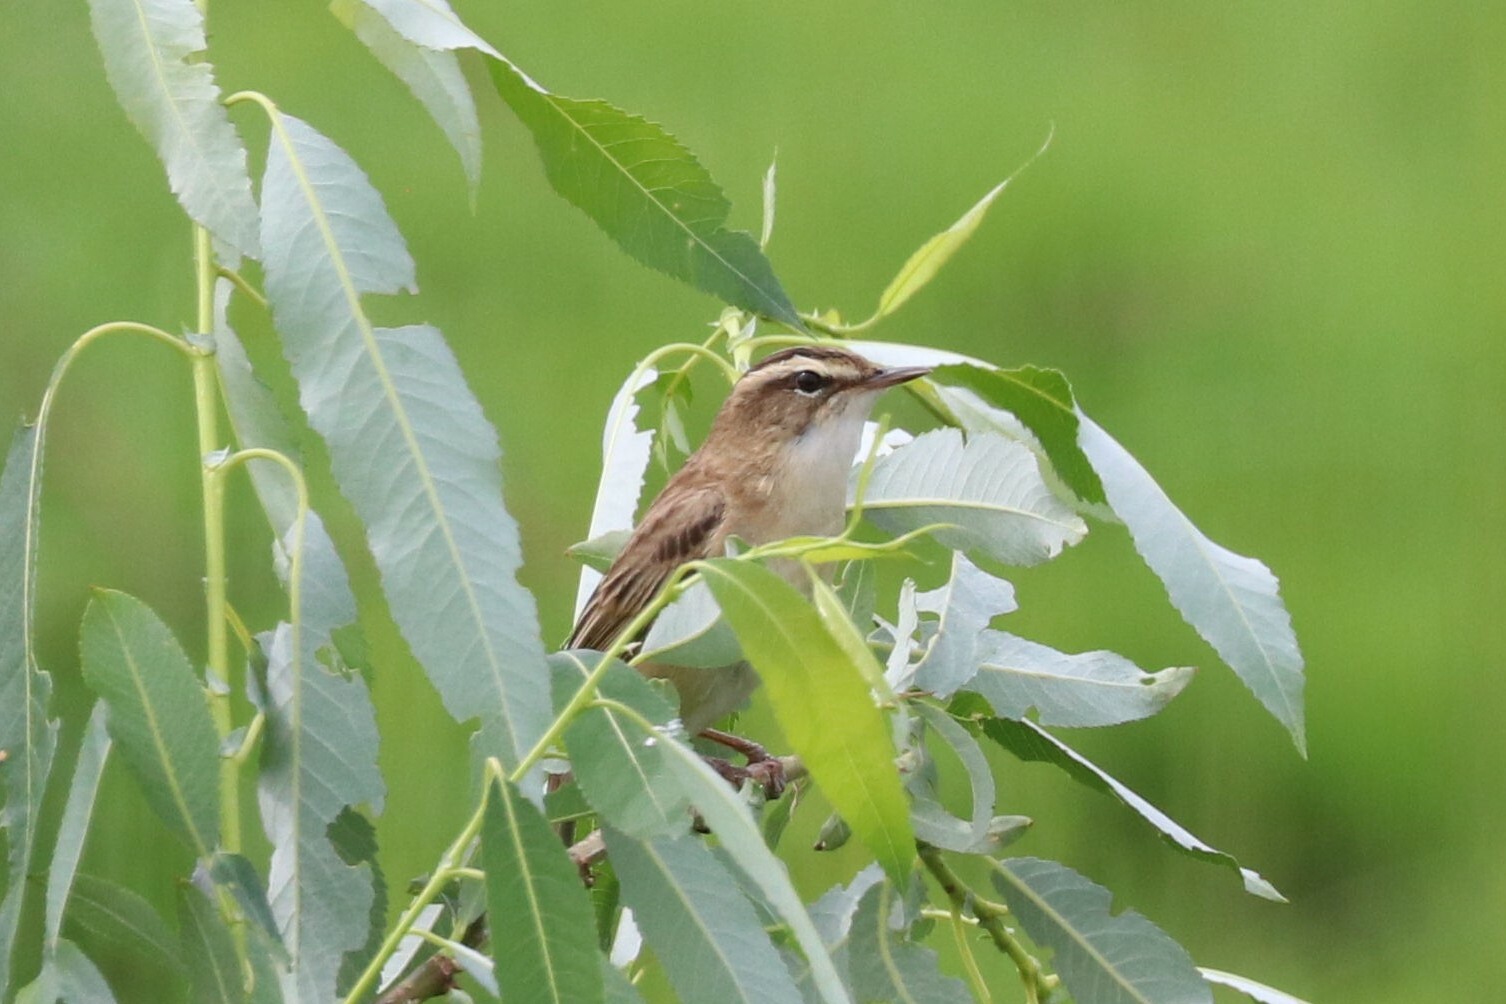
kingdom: Animalia
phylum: Chordata
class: Aves
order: Passeriformes
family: Acrocephalidae
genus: Acrocephalus
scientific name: Acrocephalus schoenobaenus
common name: Sedge warbler
